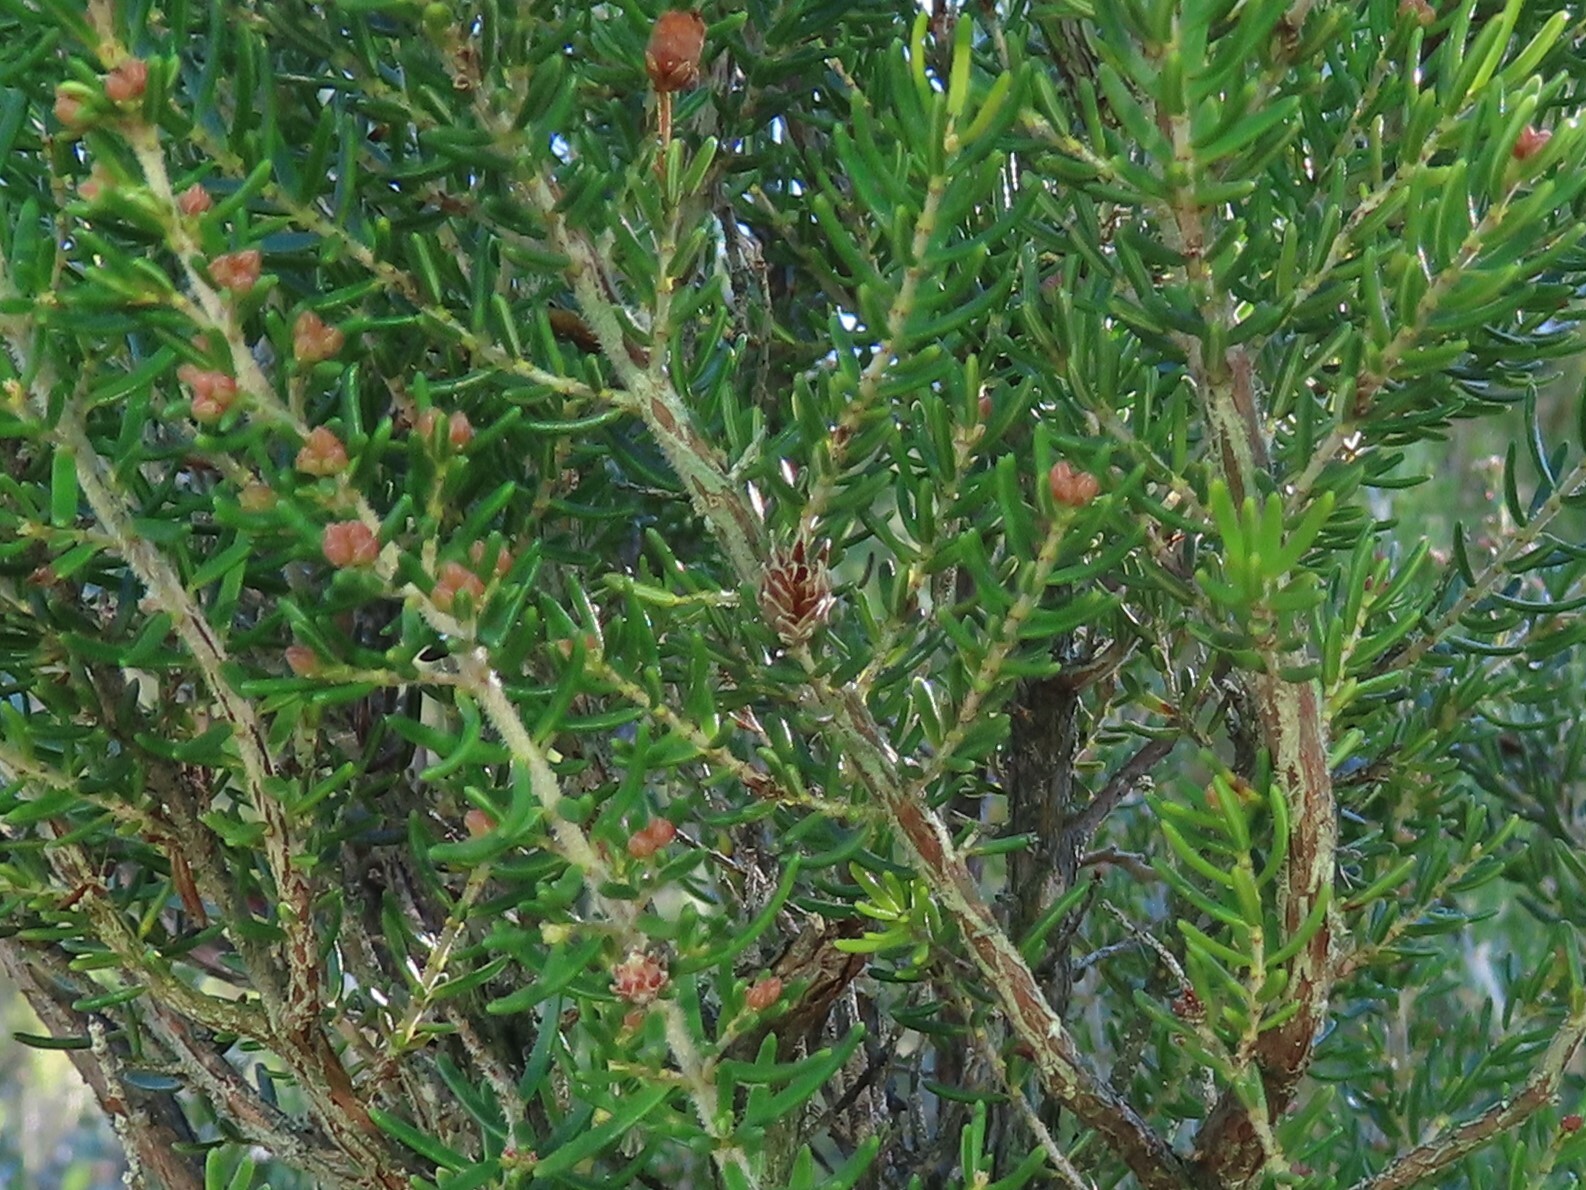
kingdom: Animalia
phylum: Arthropoda
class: Insecta
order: Diptera
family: Cecidomyiidae
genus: Wachtliella
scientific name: Wachtliella ericina
